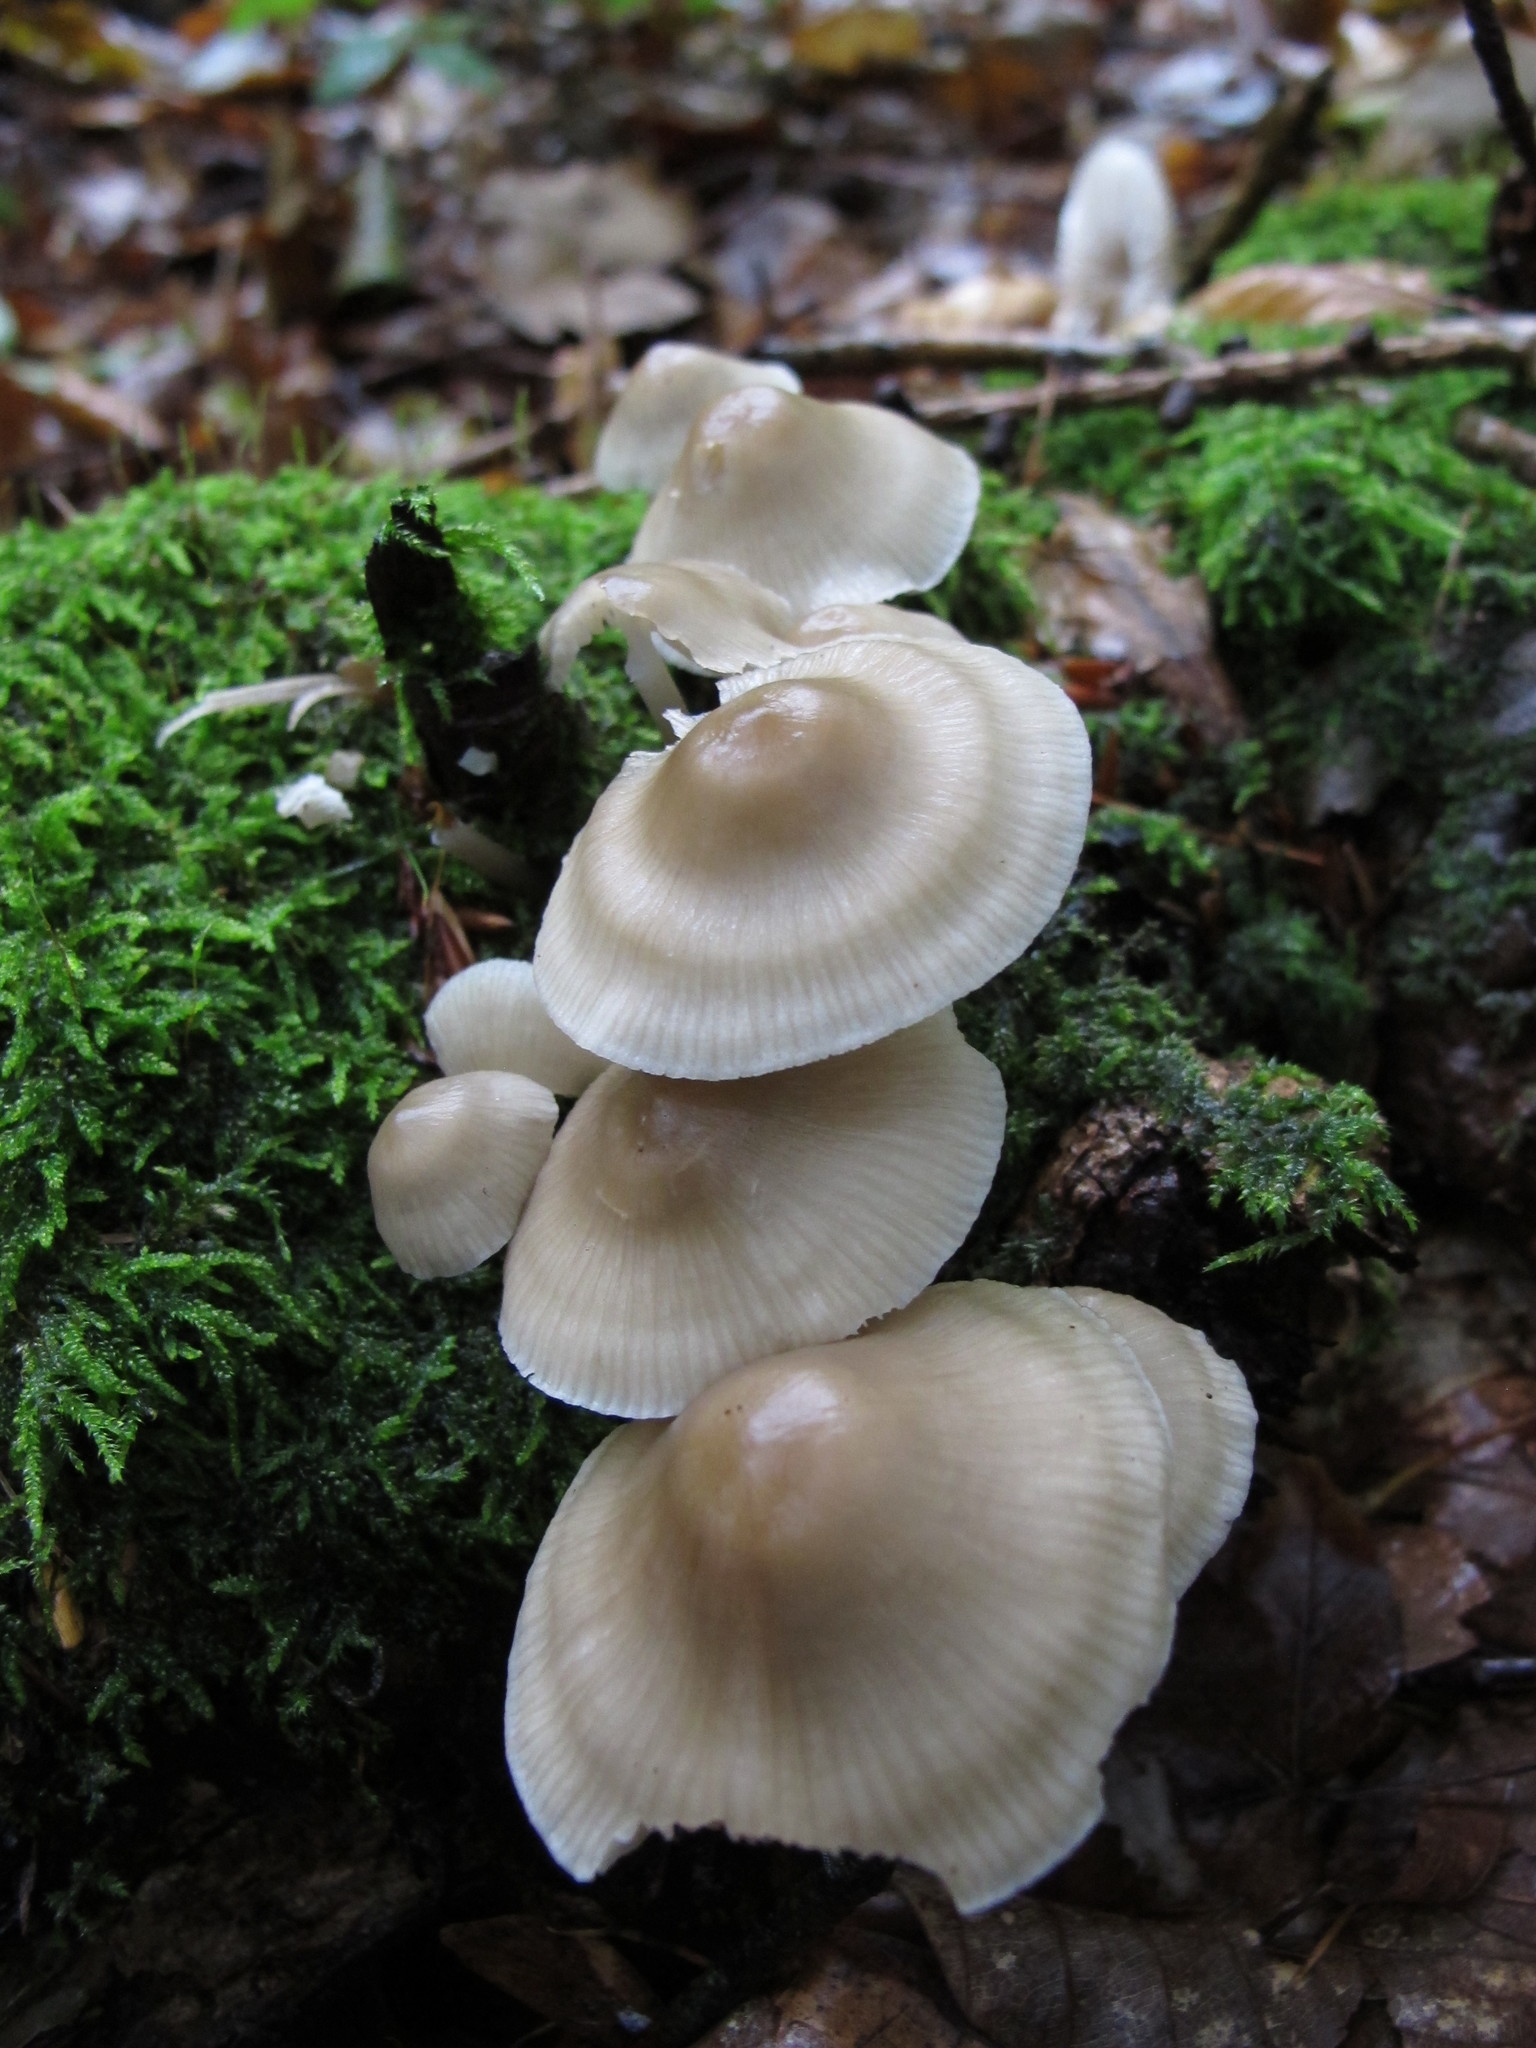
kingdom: Fungi
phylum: Basidiomycota
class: Agaricomycetes
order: Agaricales
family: Mycenaceae
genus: Mycena
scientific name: Mycena galericulata
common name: Bonnet mycena
